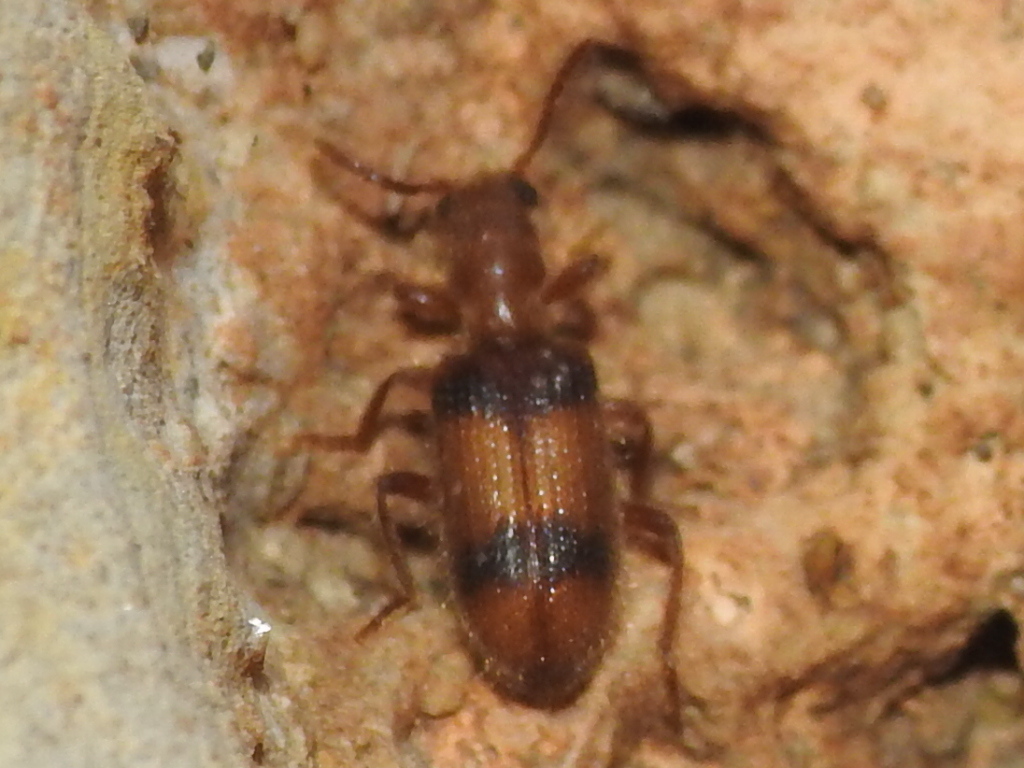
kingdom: Animalia
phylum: Arthropoda
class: Insecta
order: Coleoptera
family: Cleridae
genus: Cymatodera
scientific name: Cymatodera puncticollis
